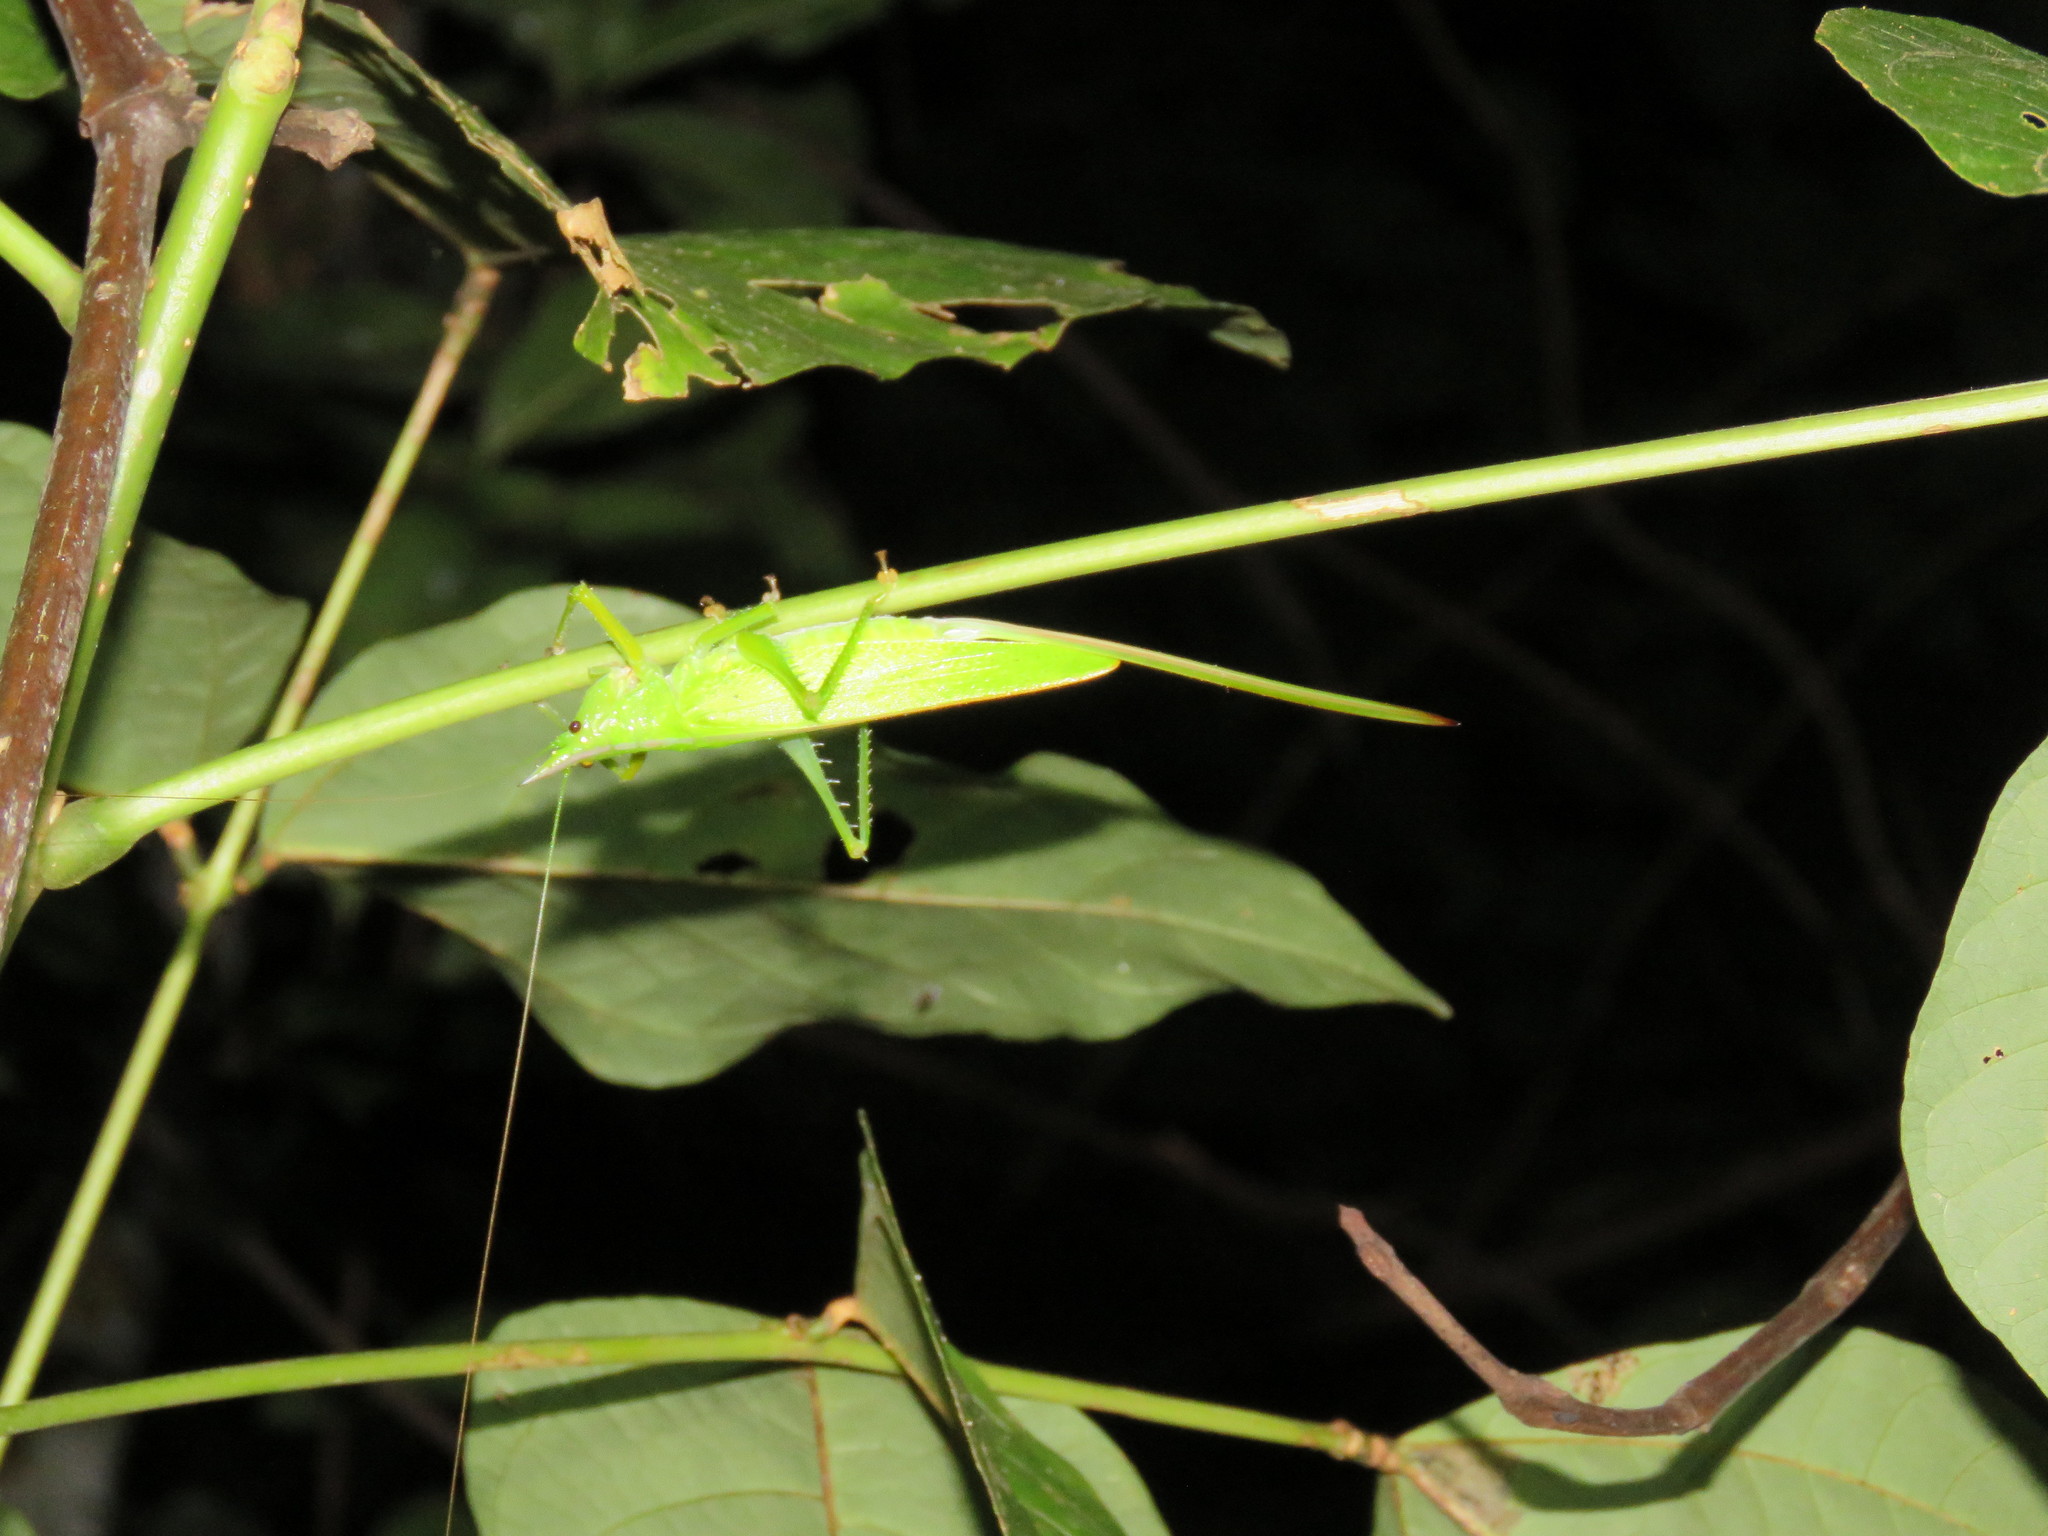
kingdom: Animalia
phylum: Arthropoda
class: Insecta
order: Orthoptera
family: Tettigoniidae
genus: Copiphora
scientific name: Copiphora gracilis
